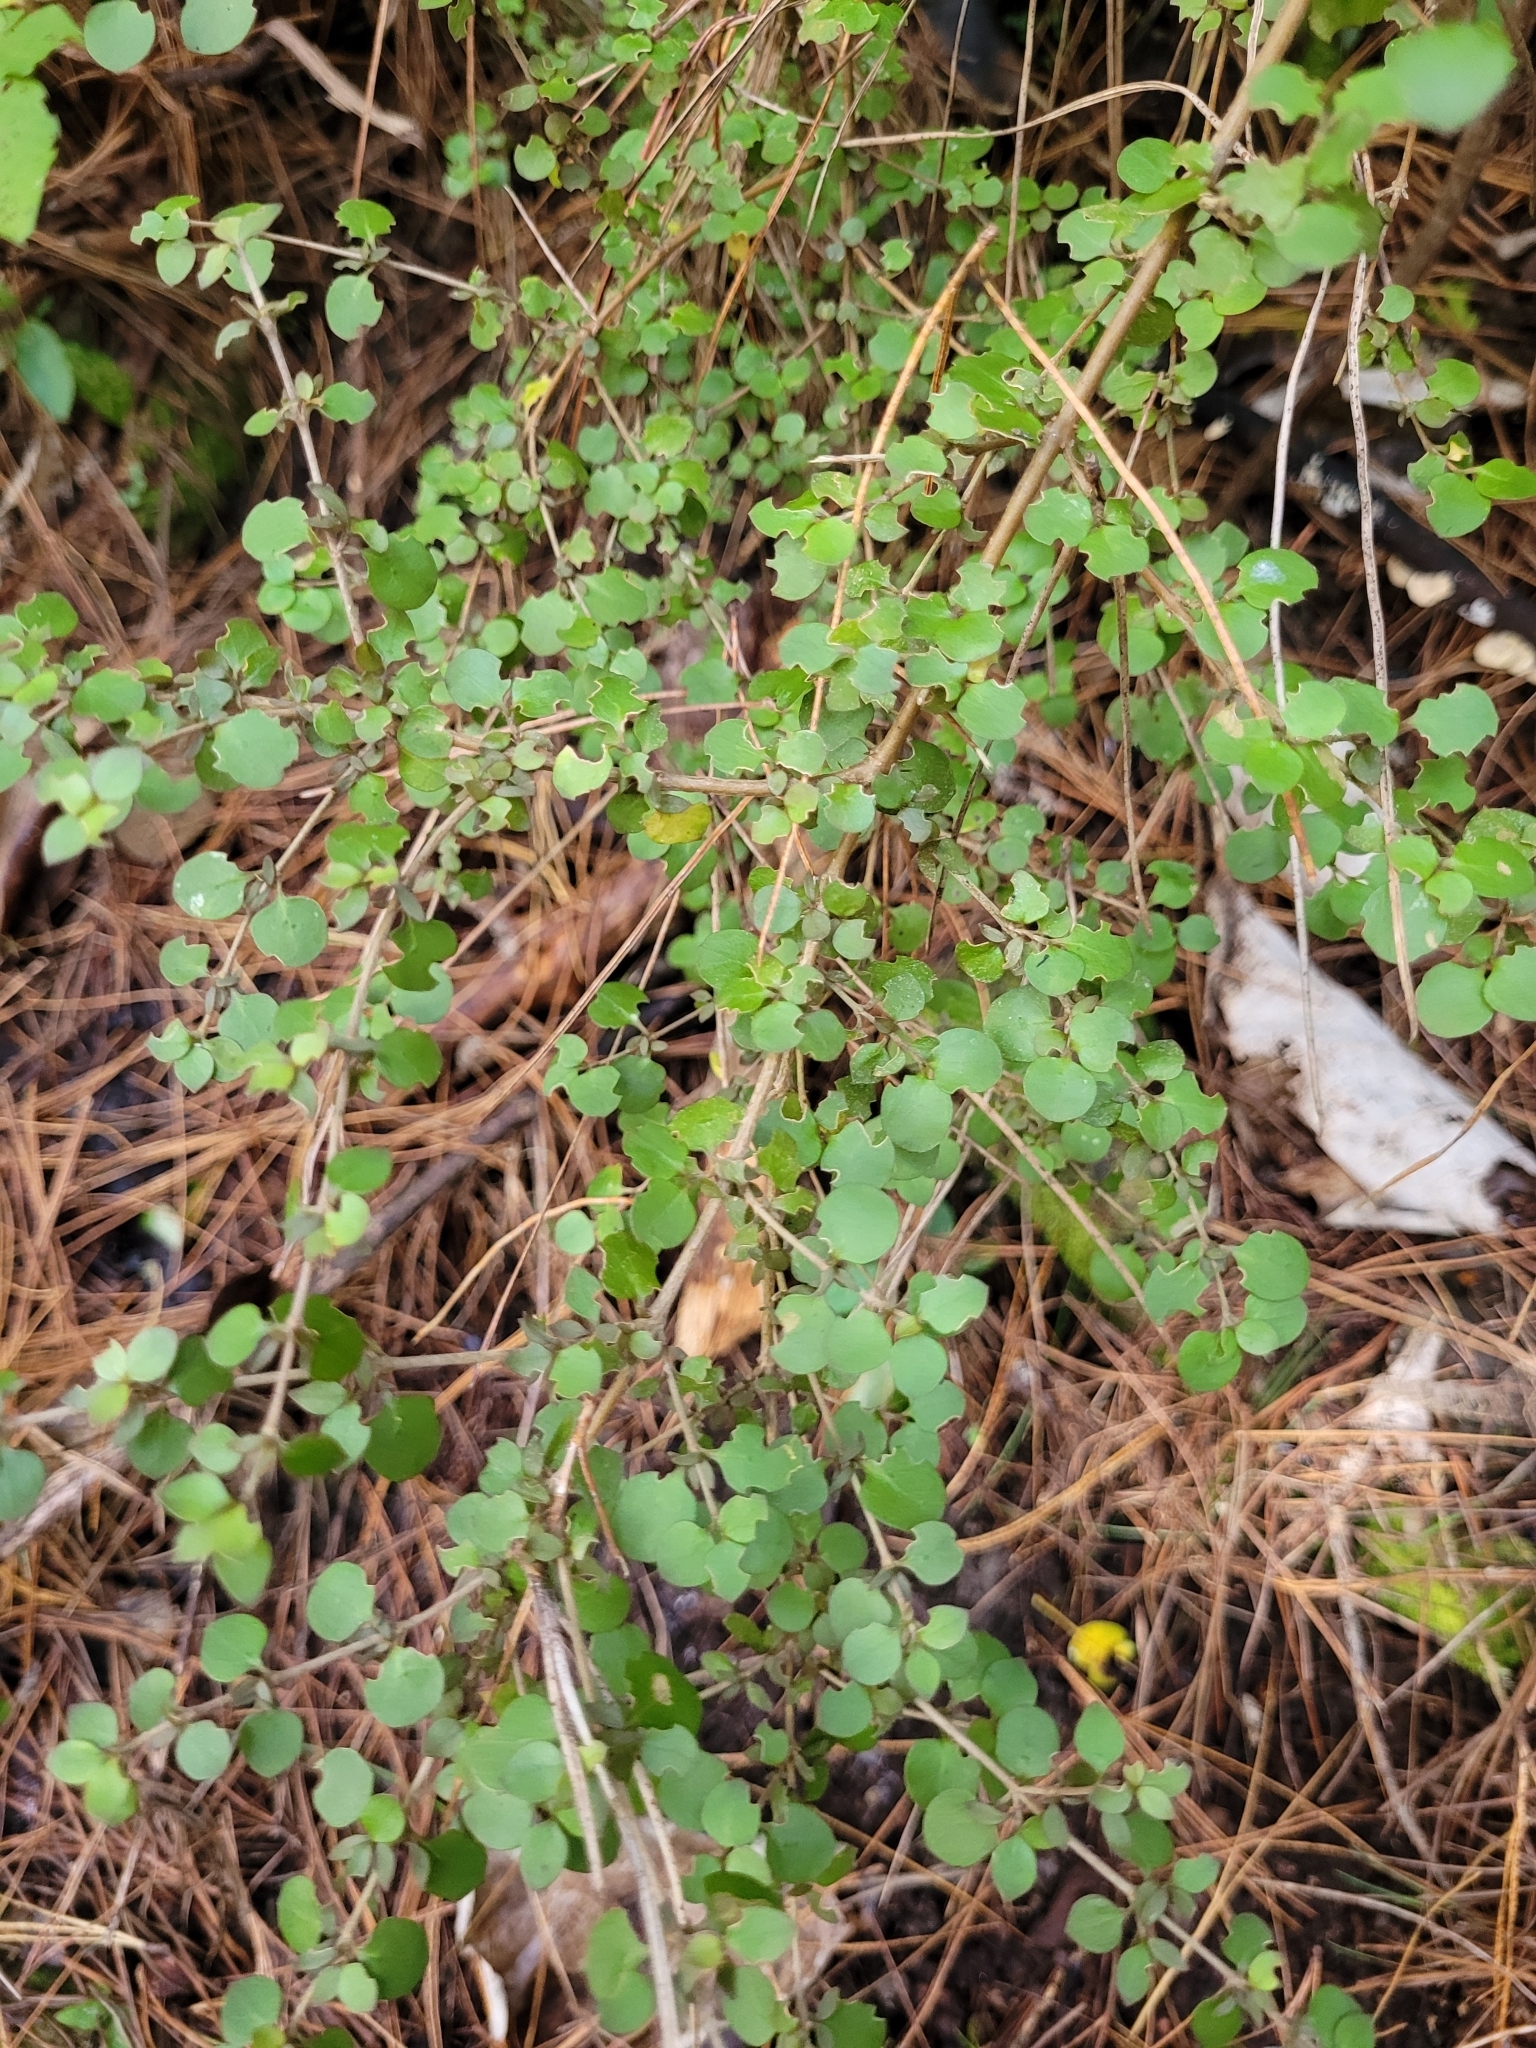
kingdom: Plantae
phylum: Tracheophyta
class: Magnoliopsida
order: Gentianales
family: Rubiaceae
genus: Coprosma
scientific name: Coprosma rhamnoides
